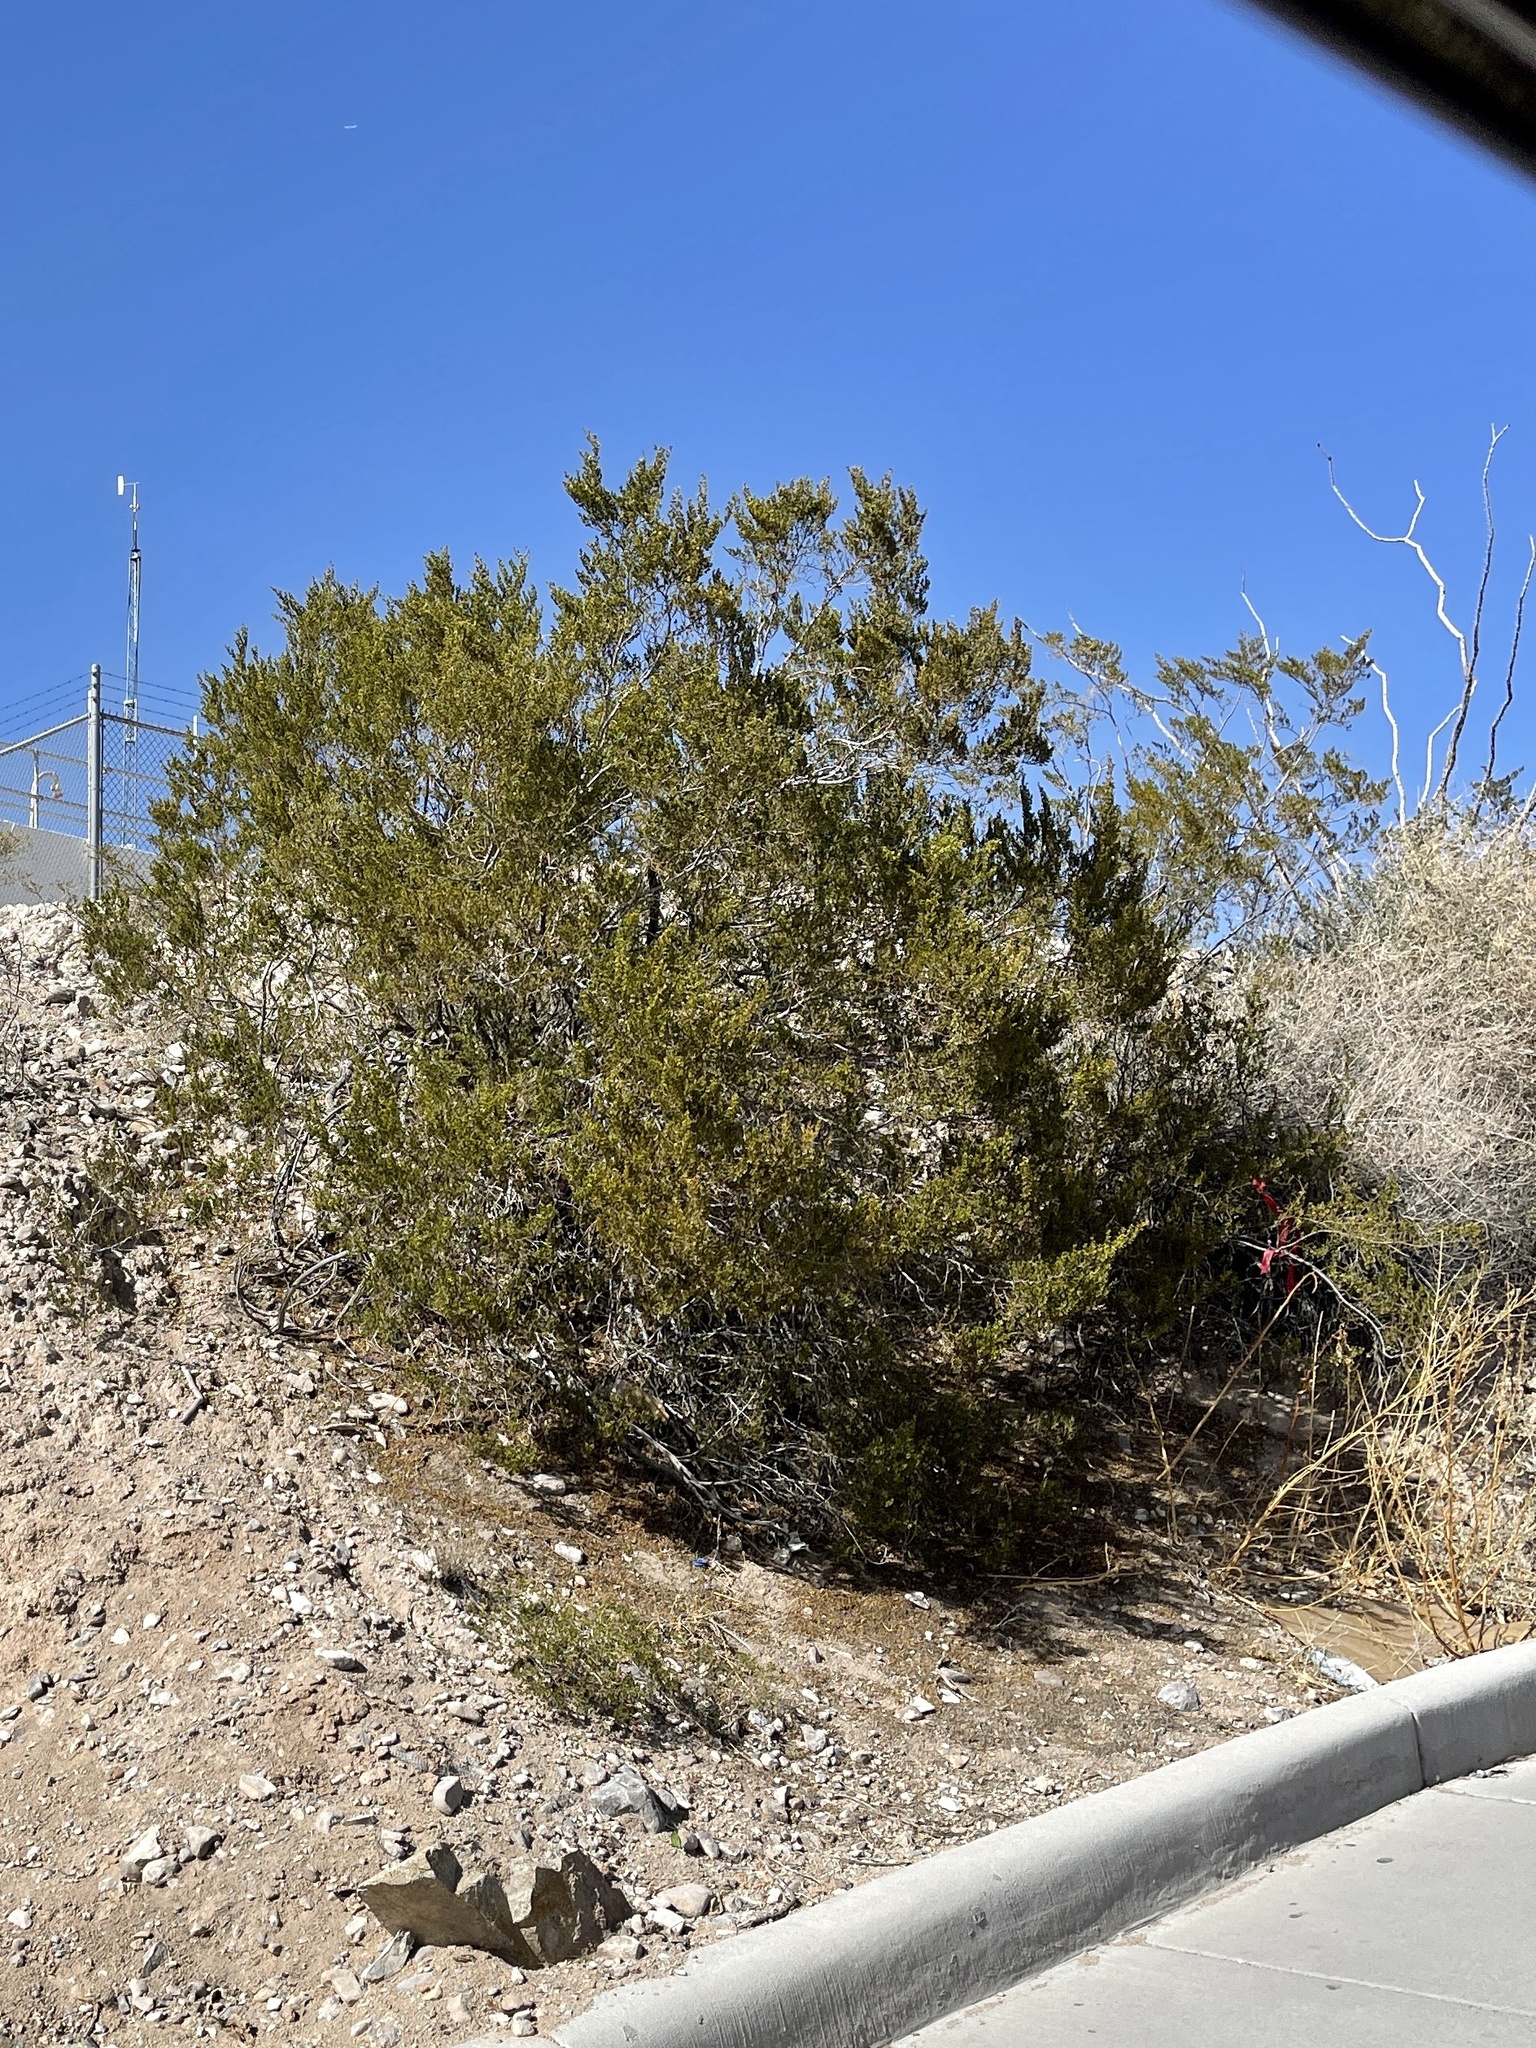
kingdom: Plantae
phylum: Tracheophyta
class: Magnoliopsida
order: Zygophyllales
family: Zygophyllaceae
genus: Larrea
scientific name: Larrea tridentata
